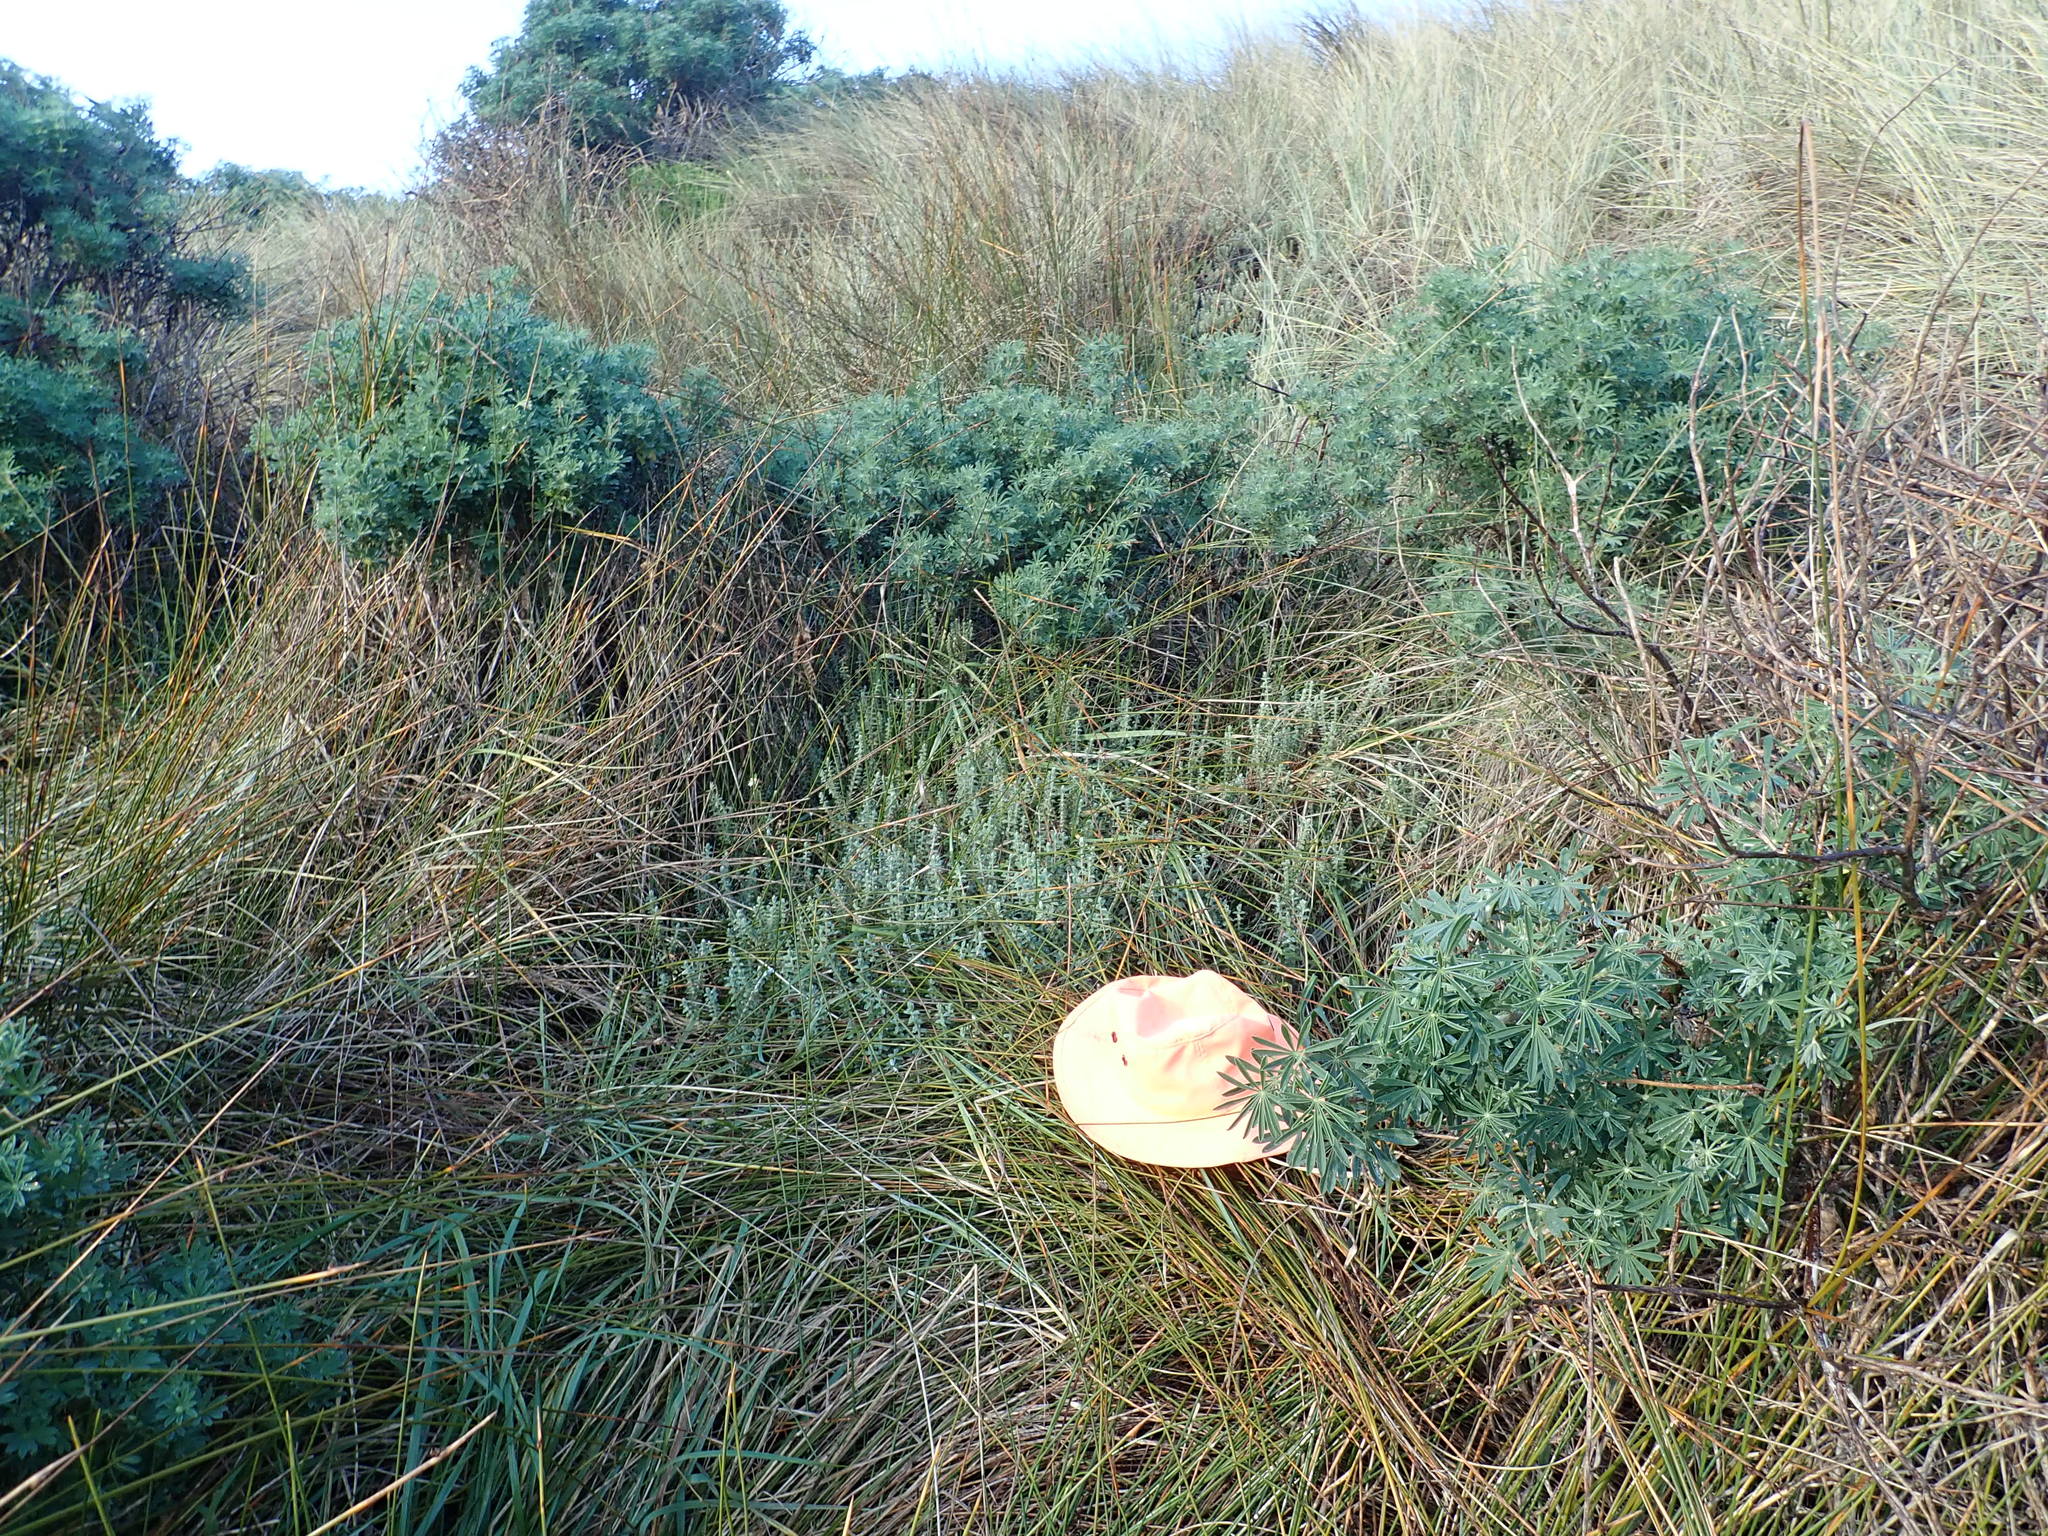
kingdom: Plantae
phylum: Tracheophyta
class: Magnoliopsida
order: Malvales
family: Thymelaeaceae
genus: Pimelea
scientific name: Pimelea villosa
